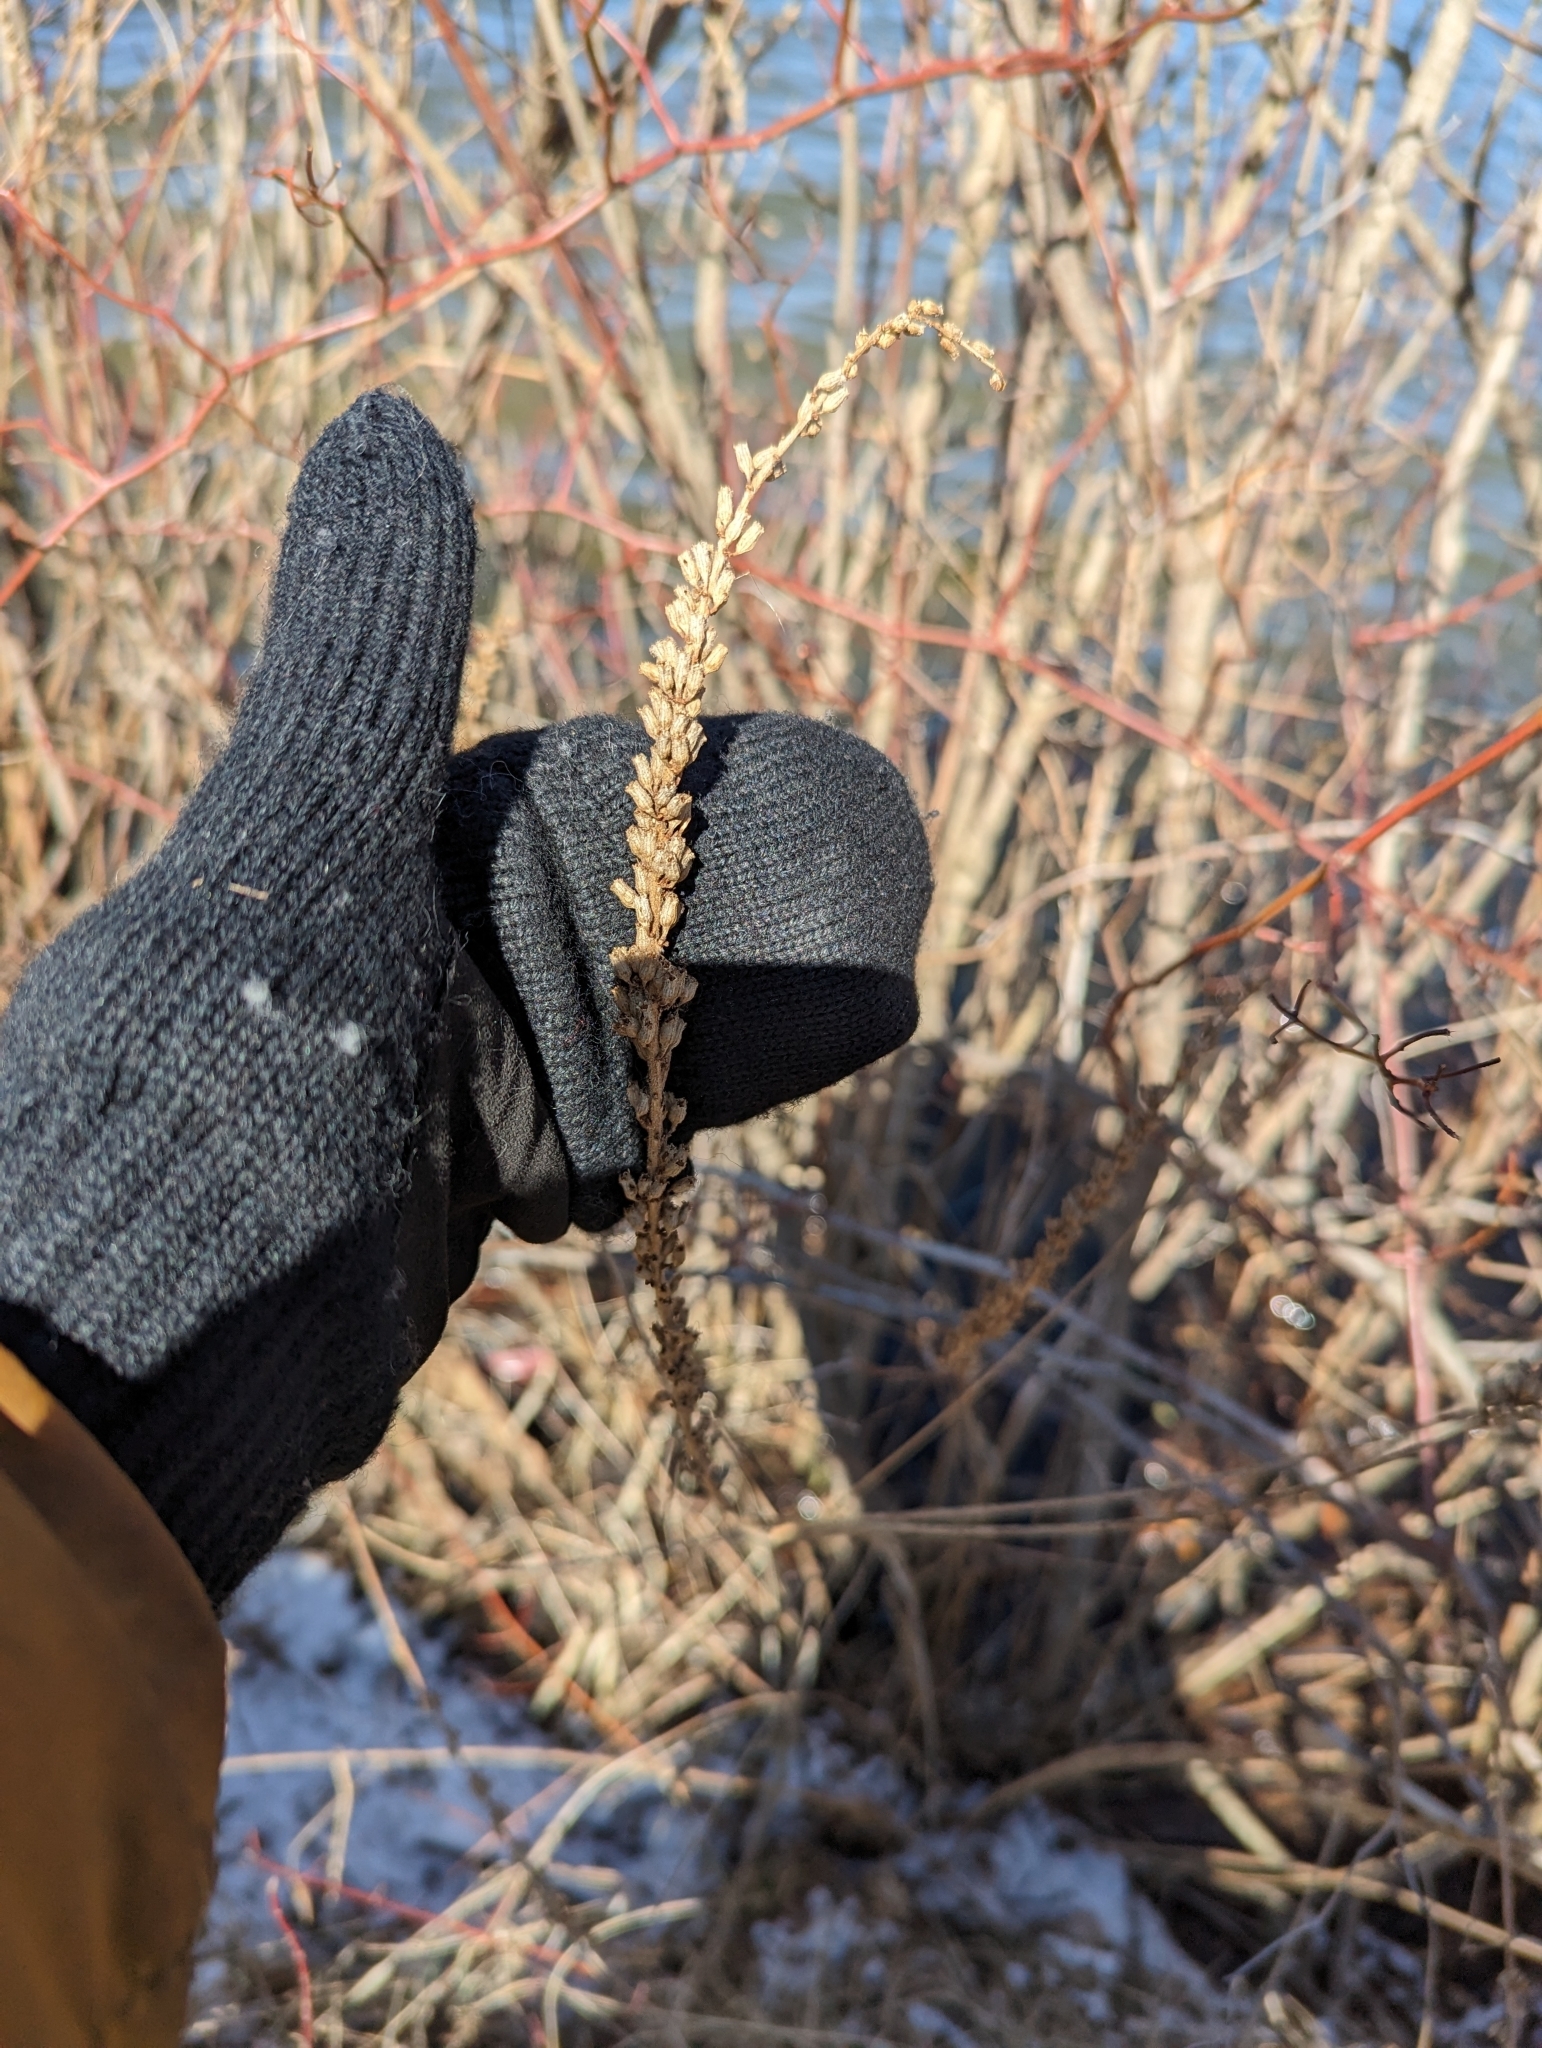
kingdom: Plantae
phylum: Tracheophyta
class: Magnoliopsida
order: Myrtales
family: Lythraceae
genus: Lythrum
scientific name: Lythrum salicaria
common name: Purple loosestrife
